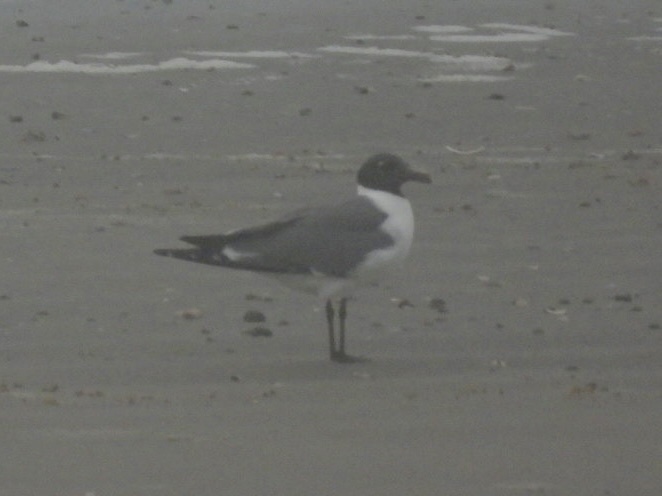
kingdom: Animalia
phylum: Chordata
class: Aves
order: Charadriiformes
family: Laridae
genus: Leucophaeus
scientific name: Leucophaeus atricilla
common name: Laughing gull
